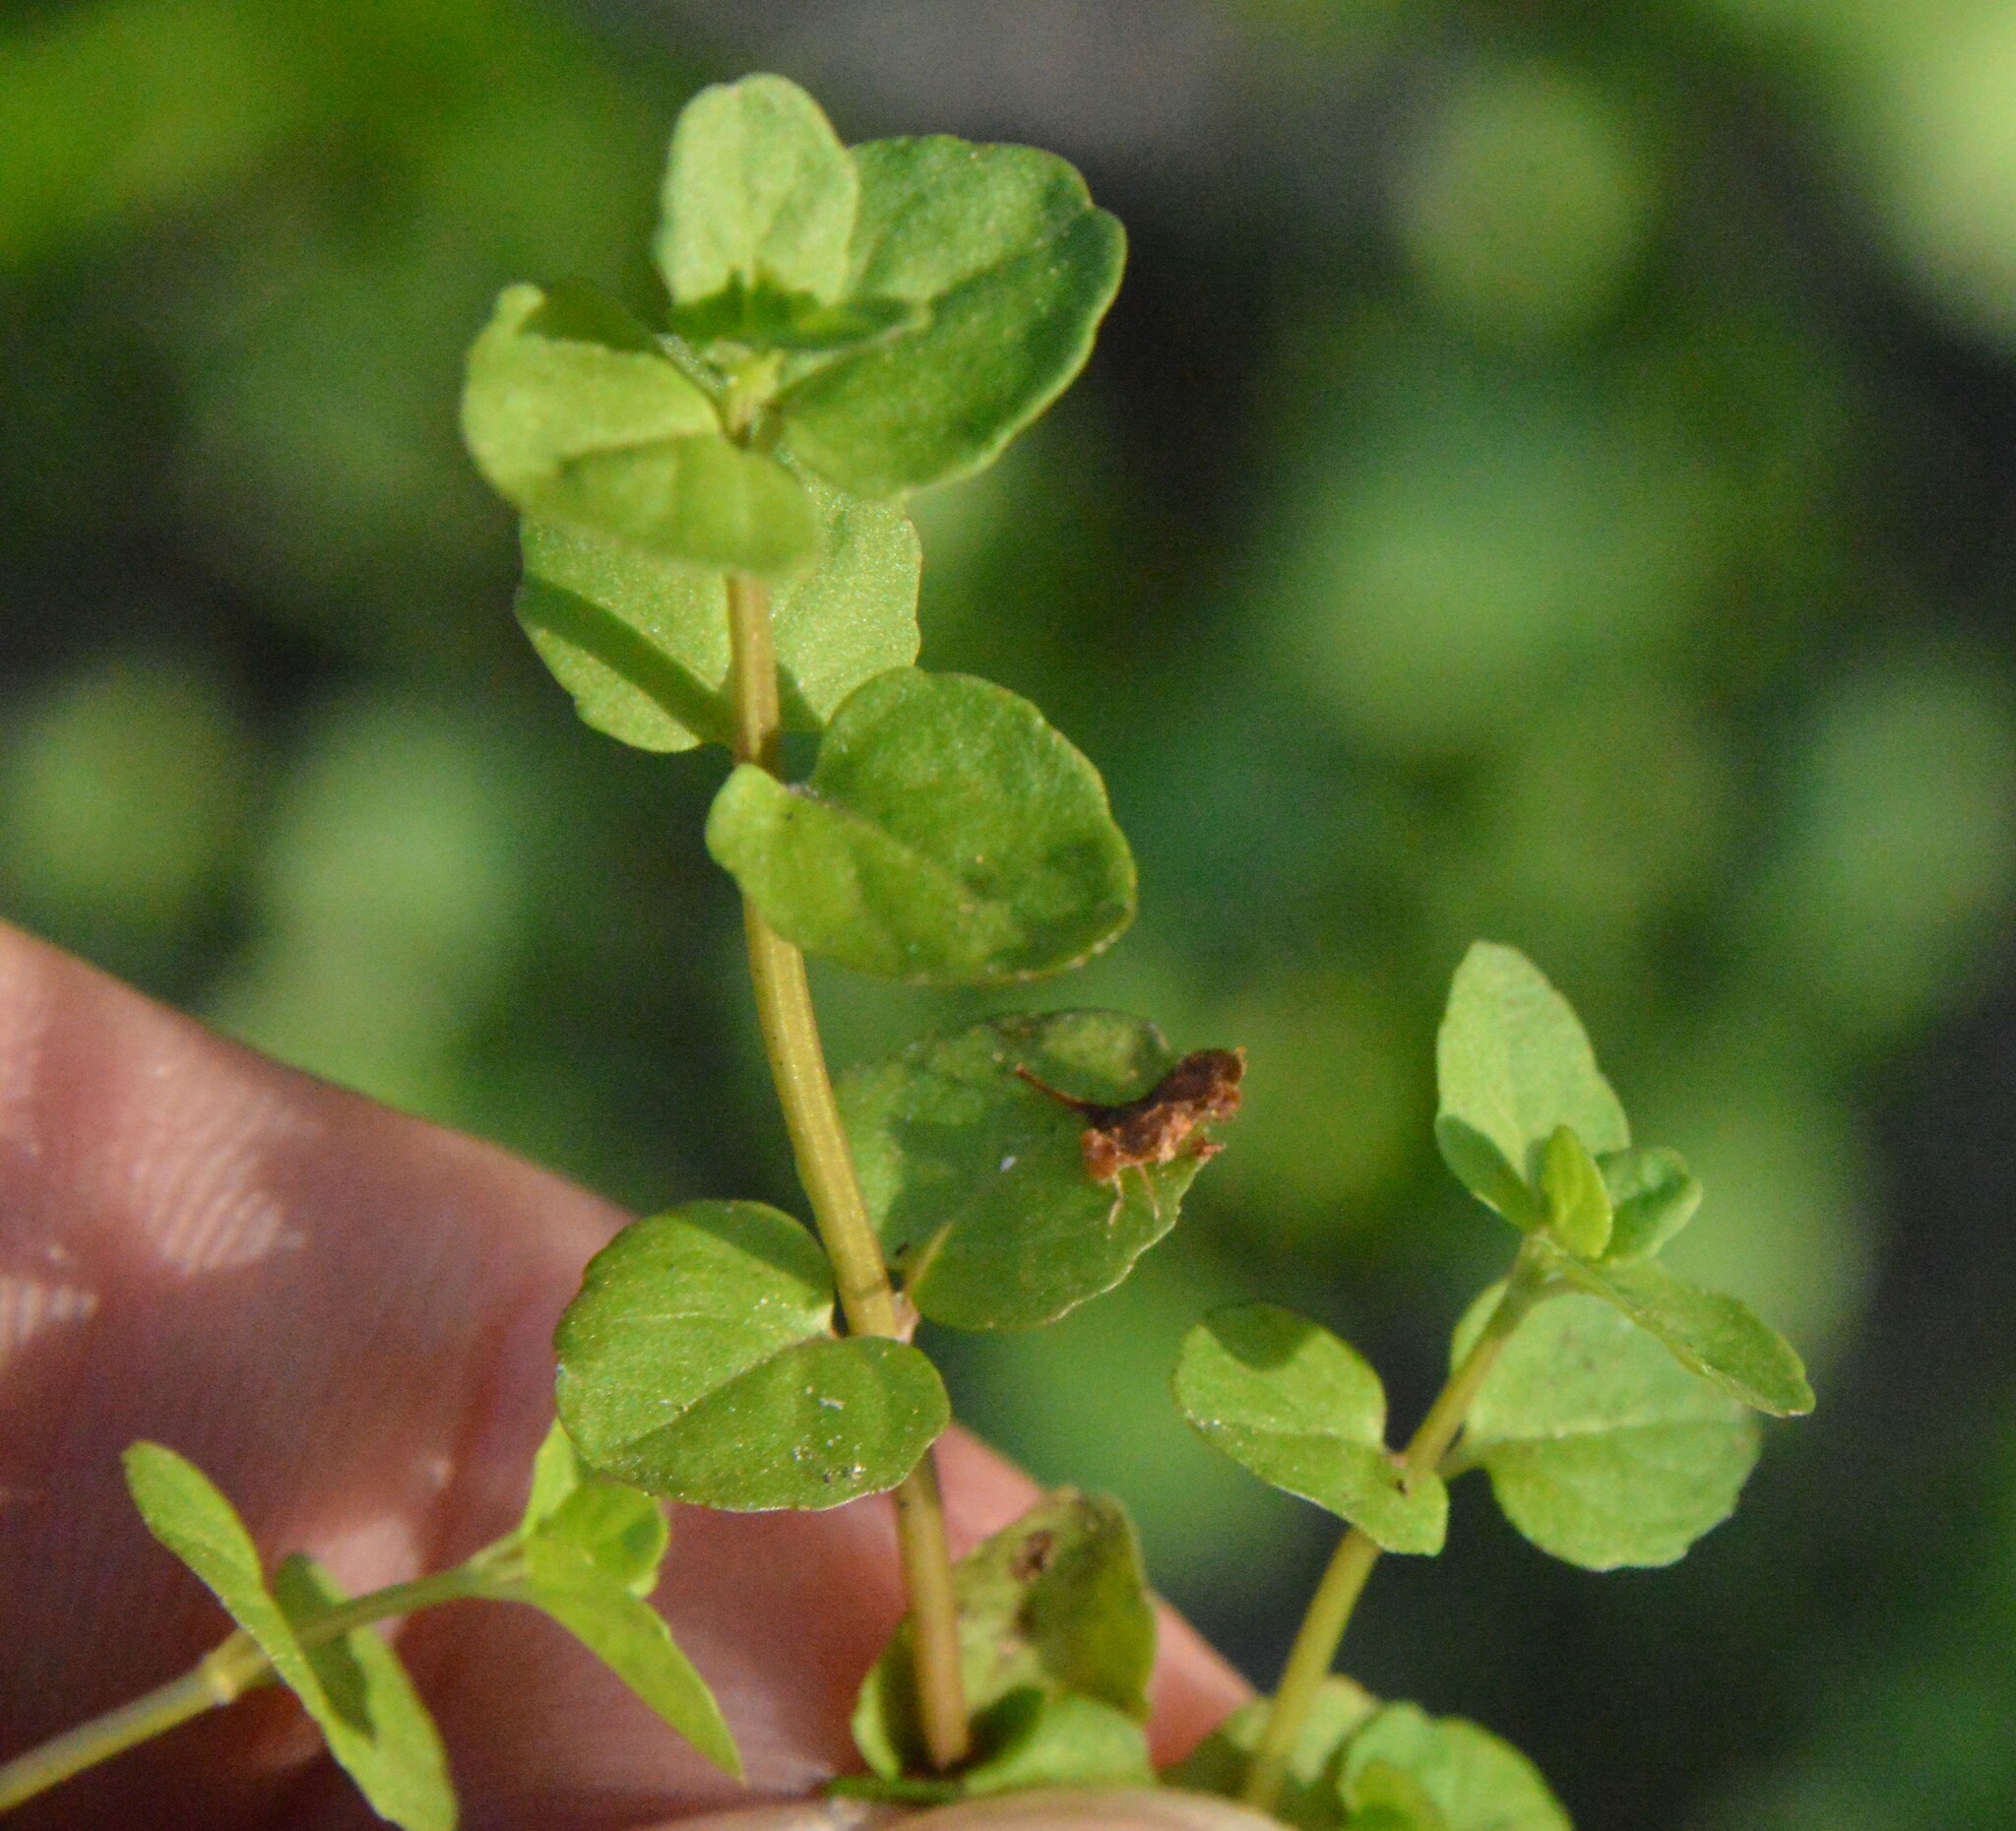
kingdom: Plantae
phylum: Tracheophyta
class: Magnoliopsida
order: Lamiales
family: Lamiaceae
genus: Clinopodium
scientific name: Clinopodium brownei
